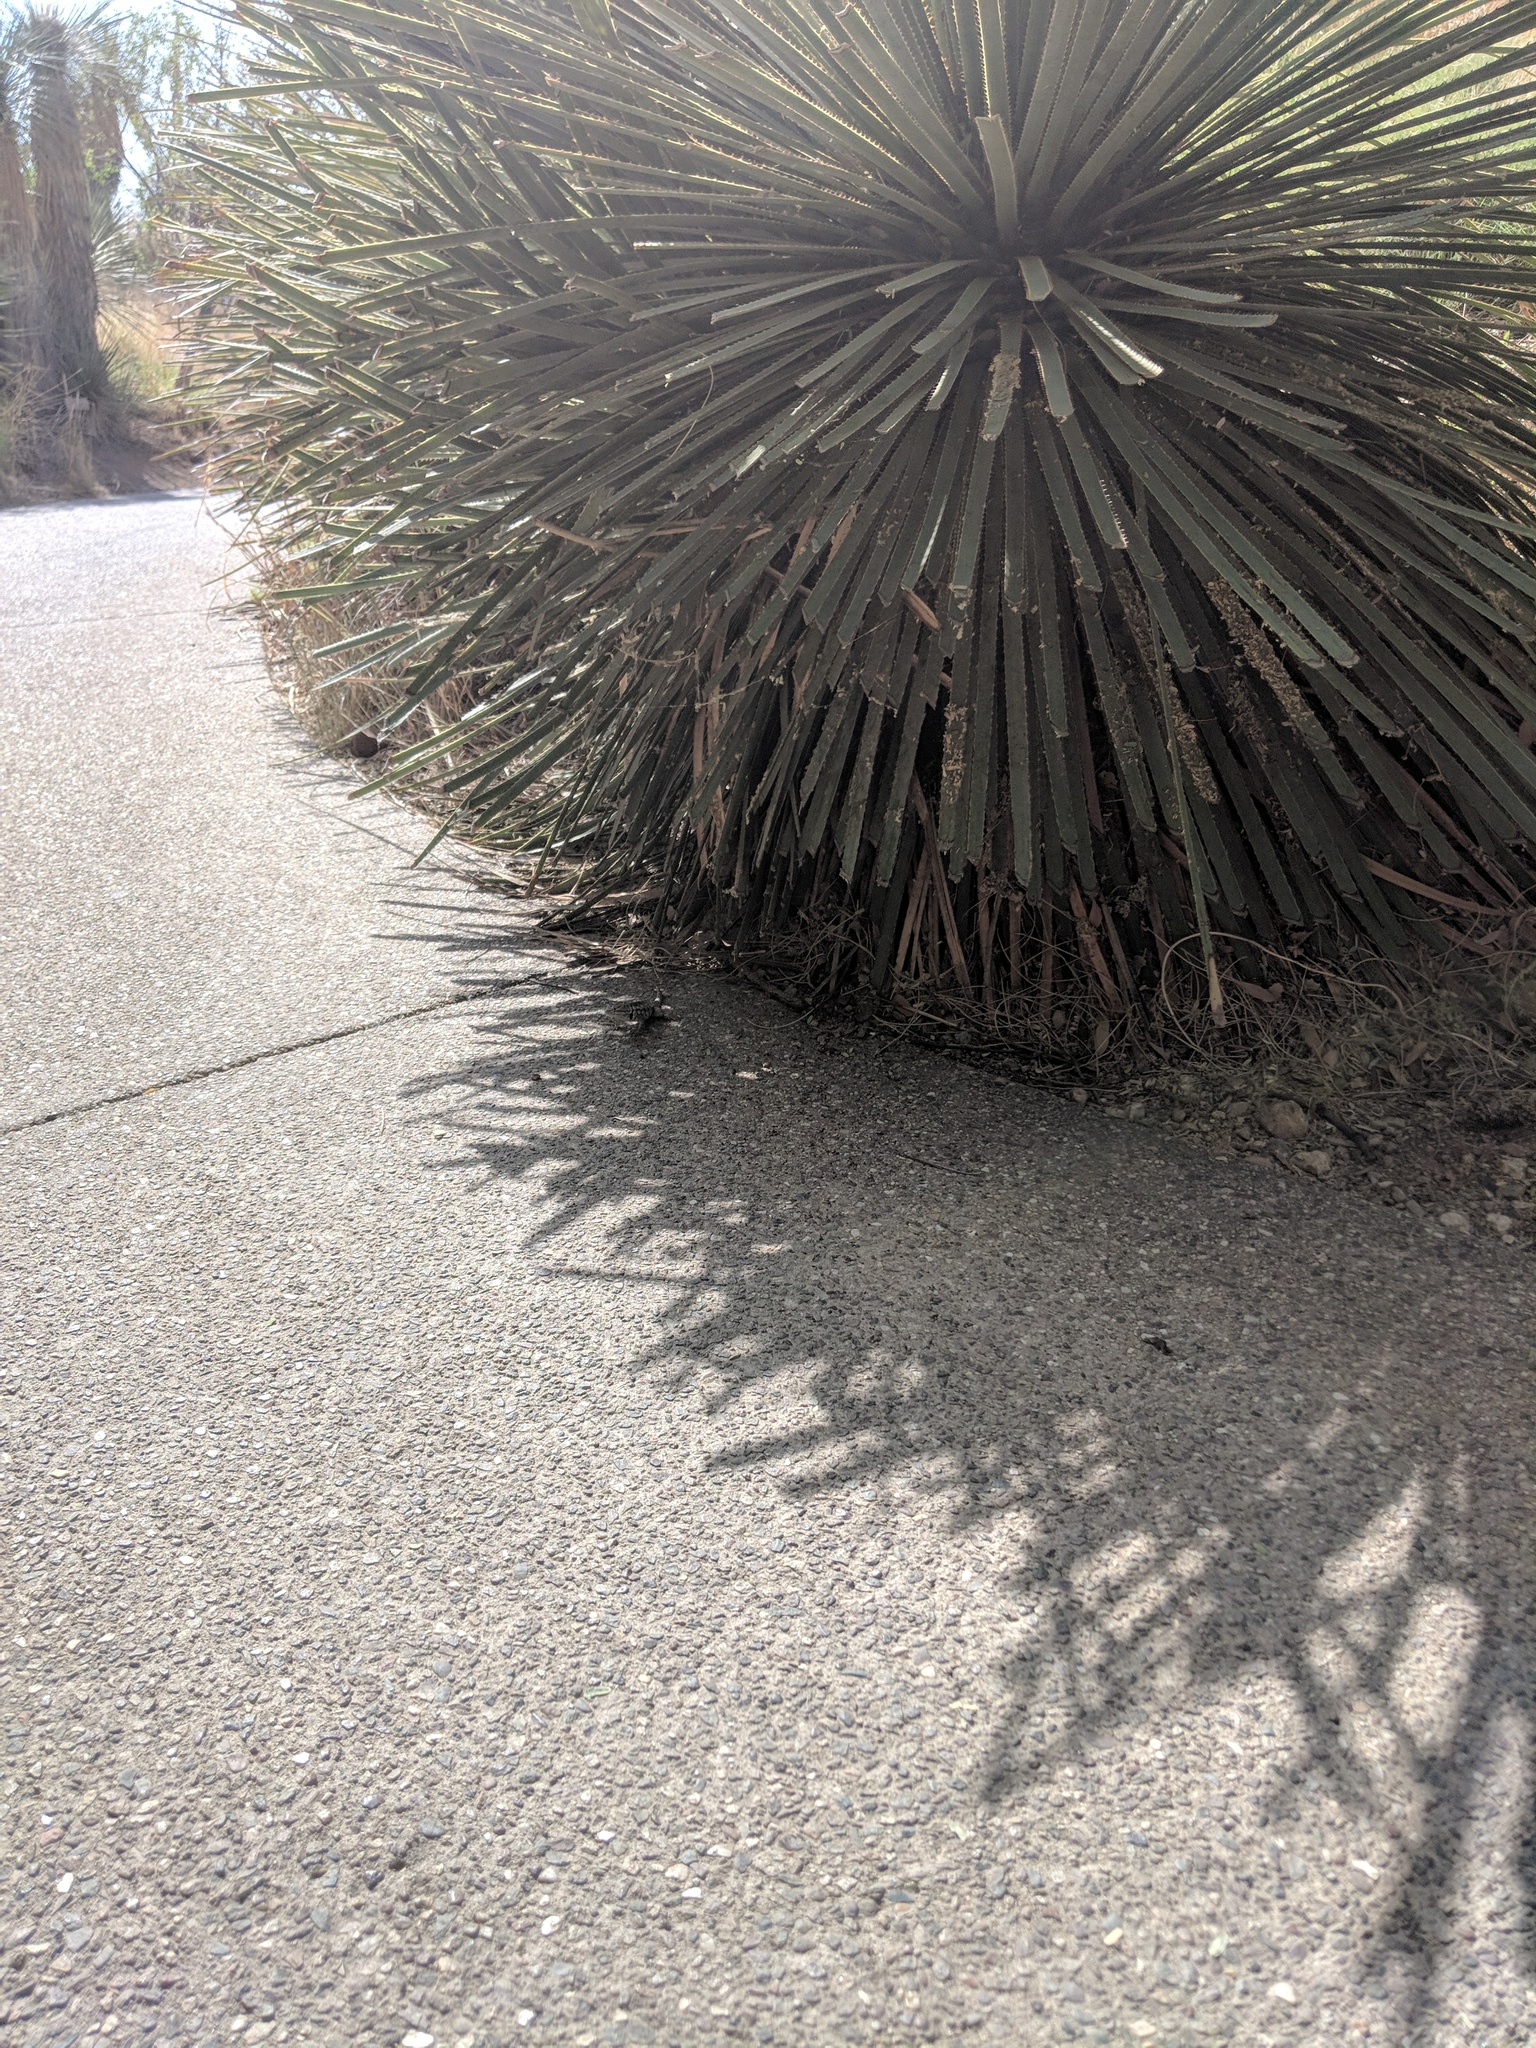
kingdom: Animalia
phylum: Chordata
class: Squamata
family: Phrynosomatidae
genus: Sceloporus
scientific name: Sceloporus magister
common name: Desert spiny lizard
